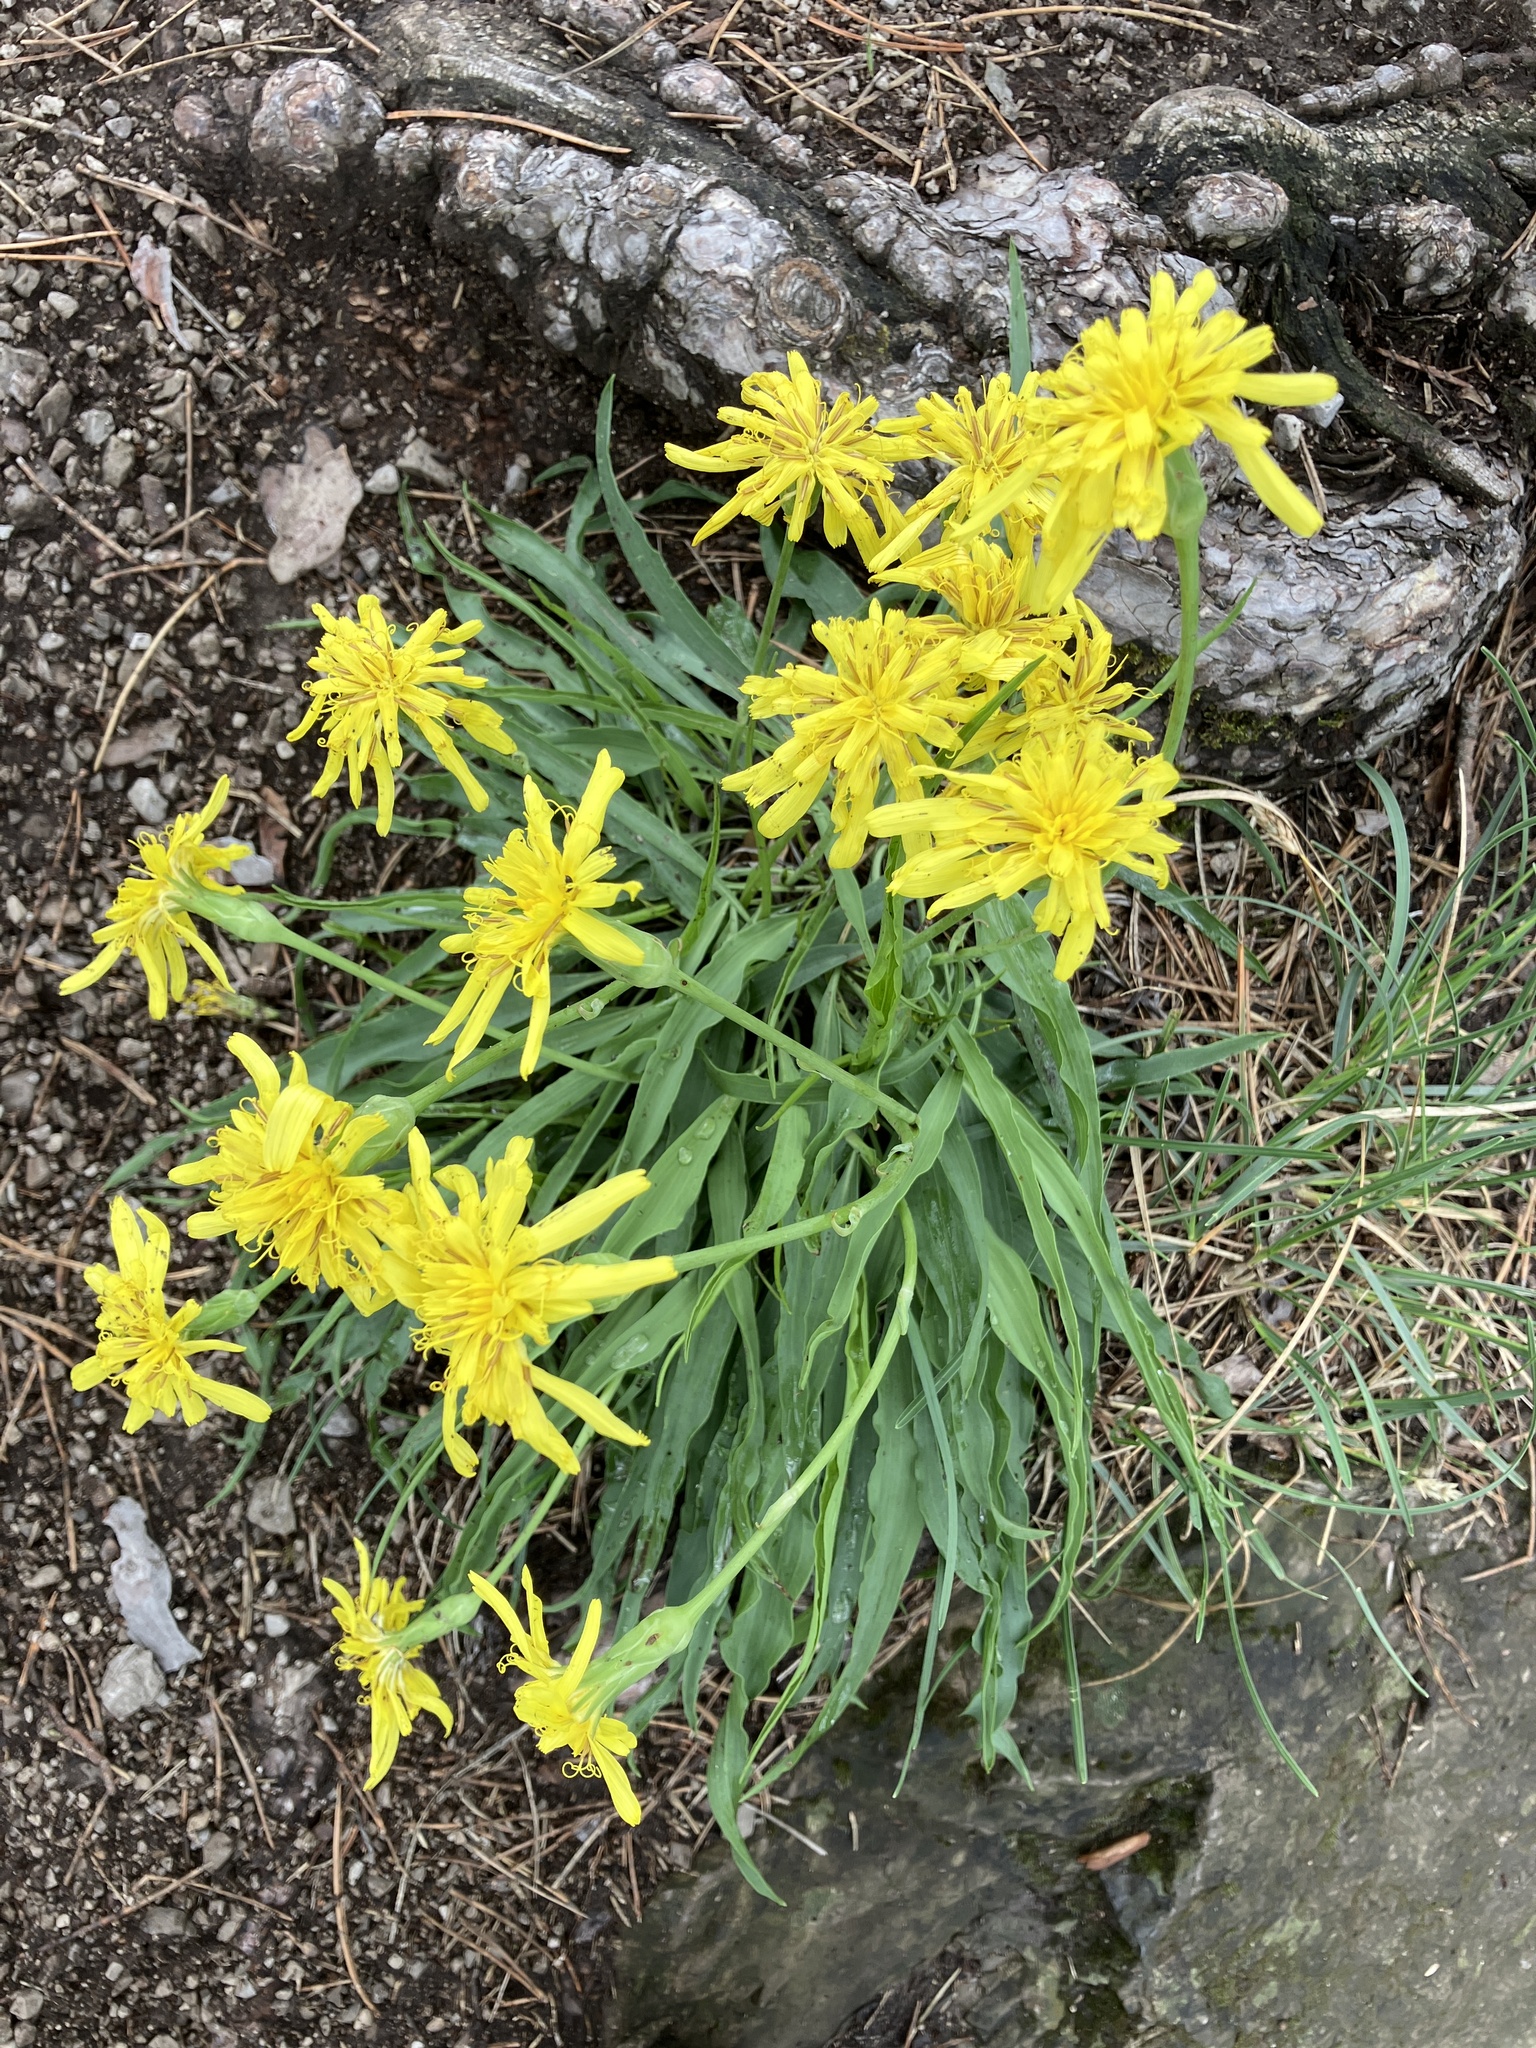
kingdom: Plantae
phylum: Tracheophyta
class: Magnoliopsida
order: Asterales
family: Asteraceae
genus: Takhtajaniantha
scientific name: Takhtajaniantha austriaca
